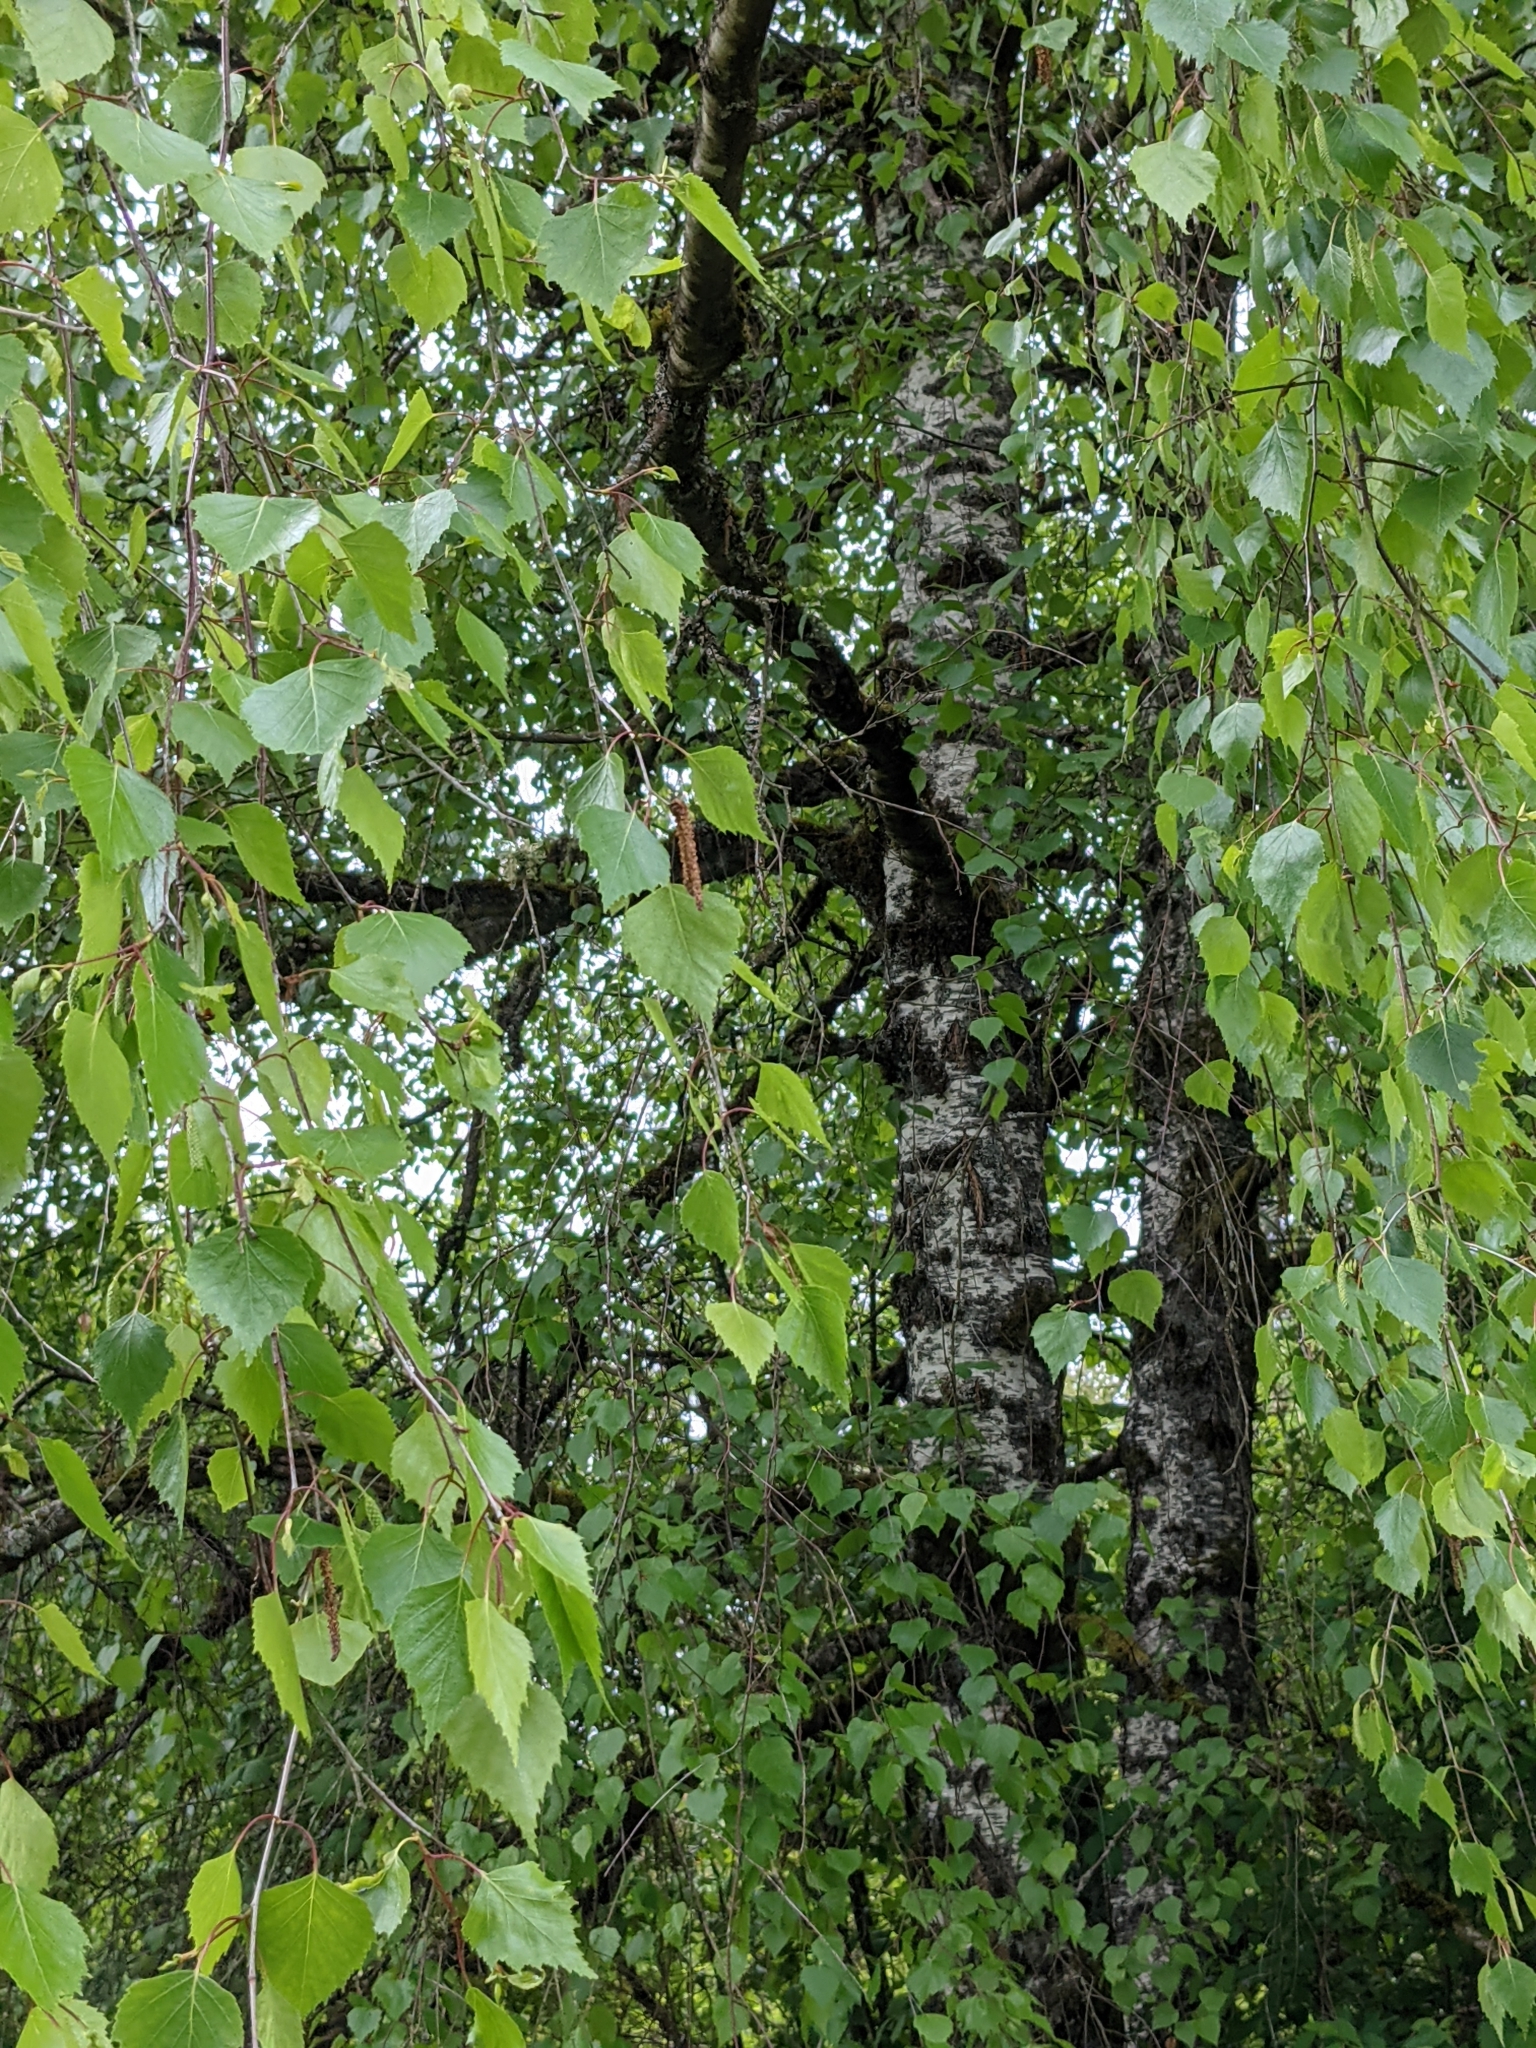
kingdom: Plantae
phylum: Tracheophyta
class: Magnoliopsida
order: Fagales
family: Betulaceae
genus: Betula
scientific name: Betula pendula
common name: Silver birch
